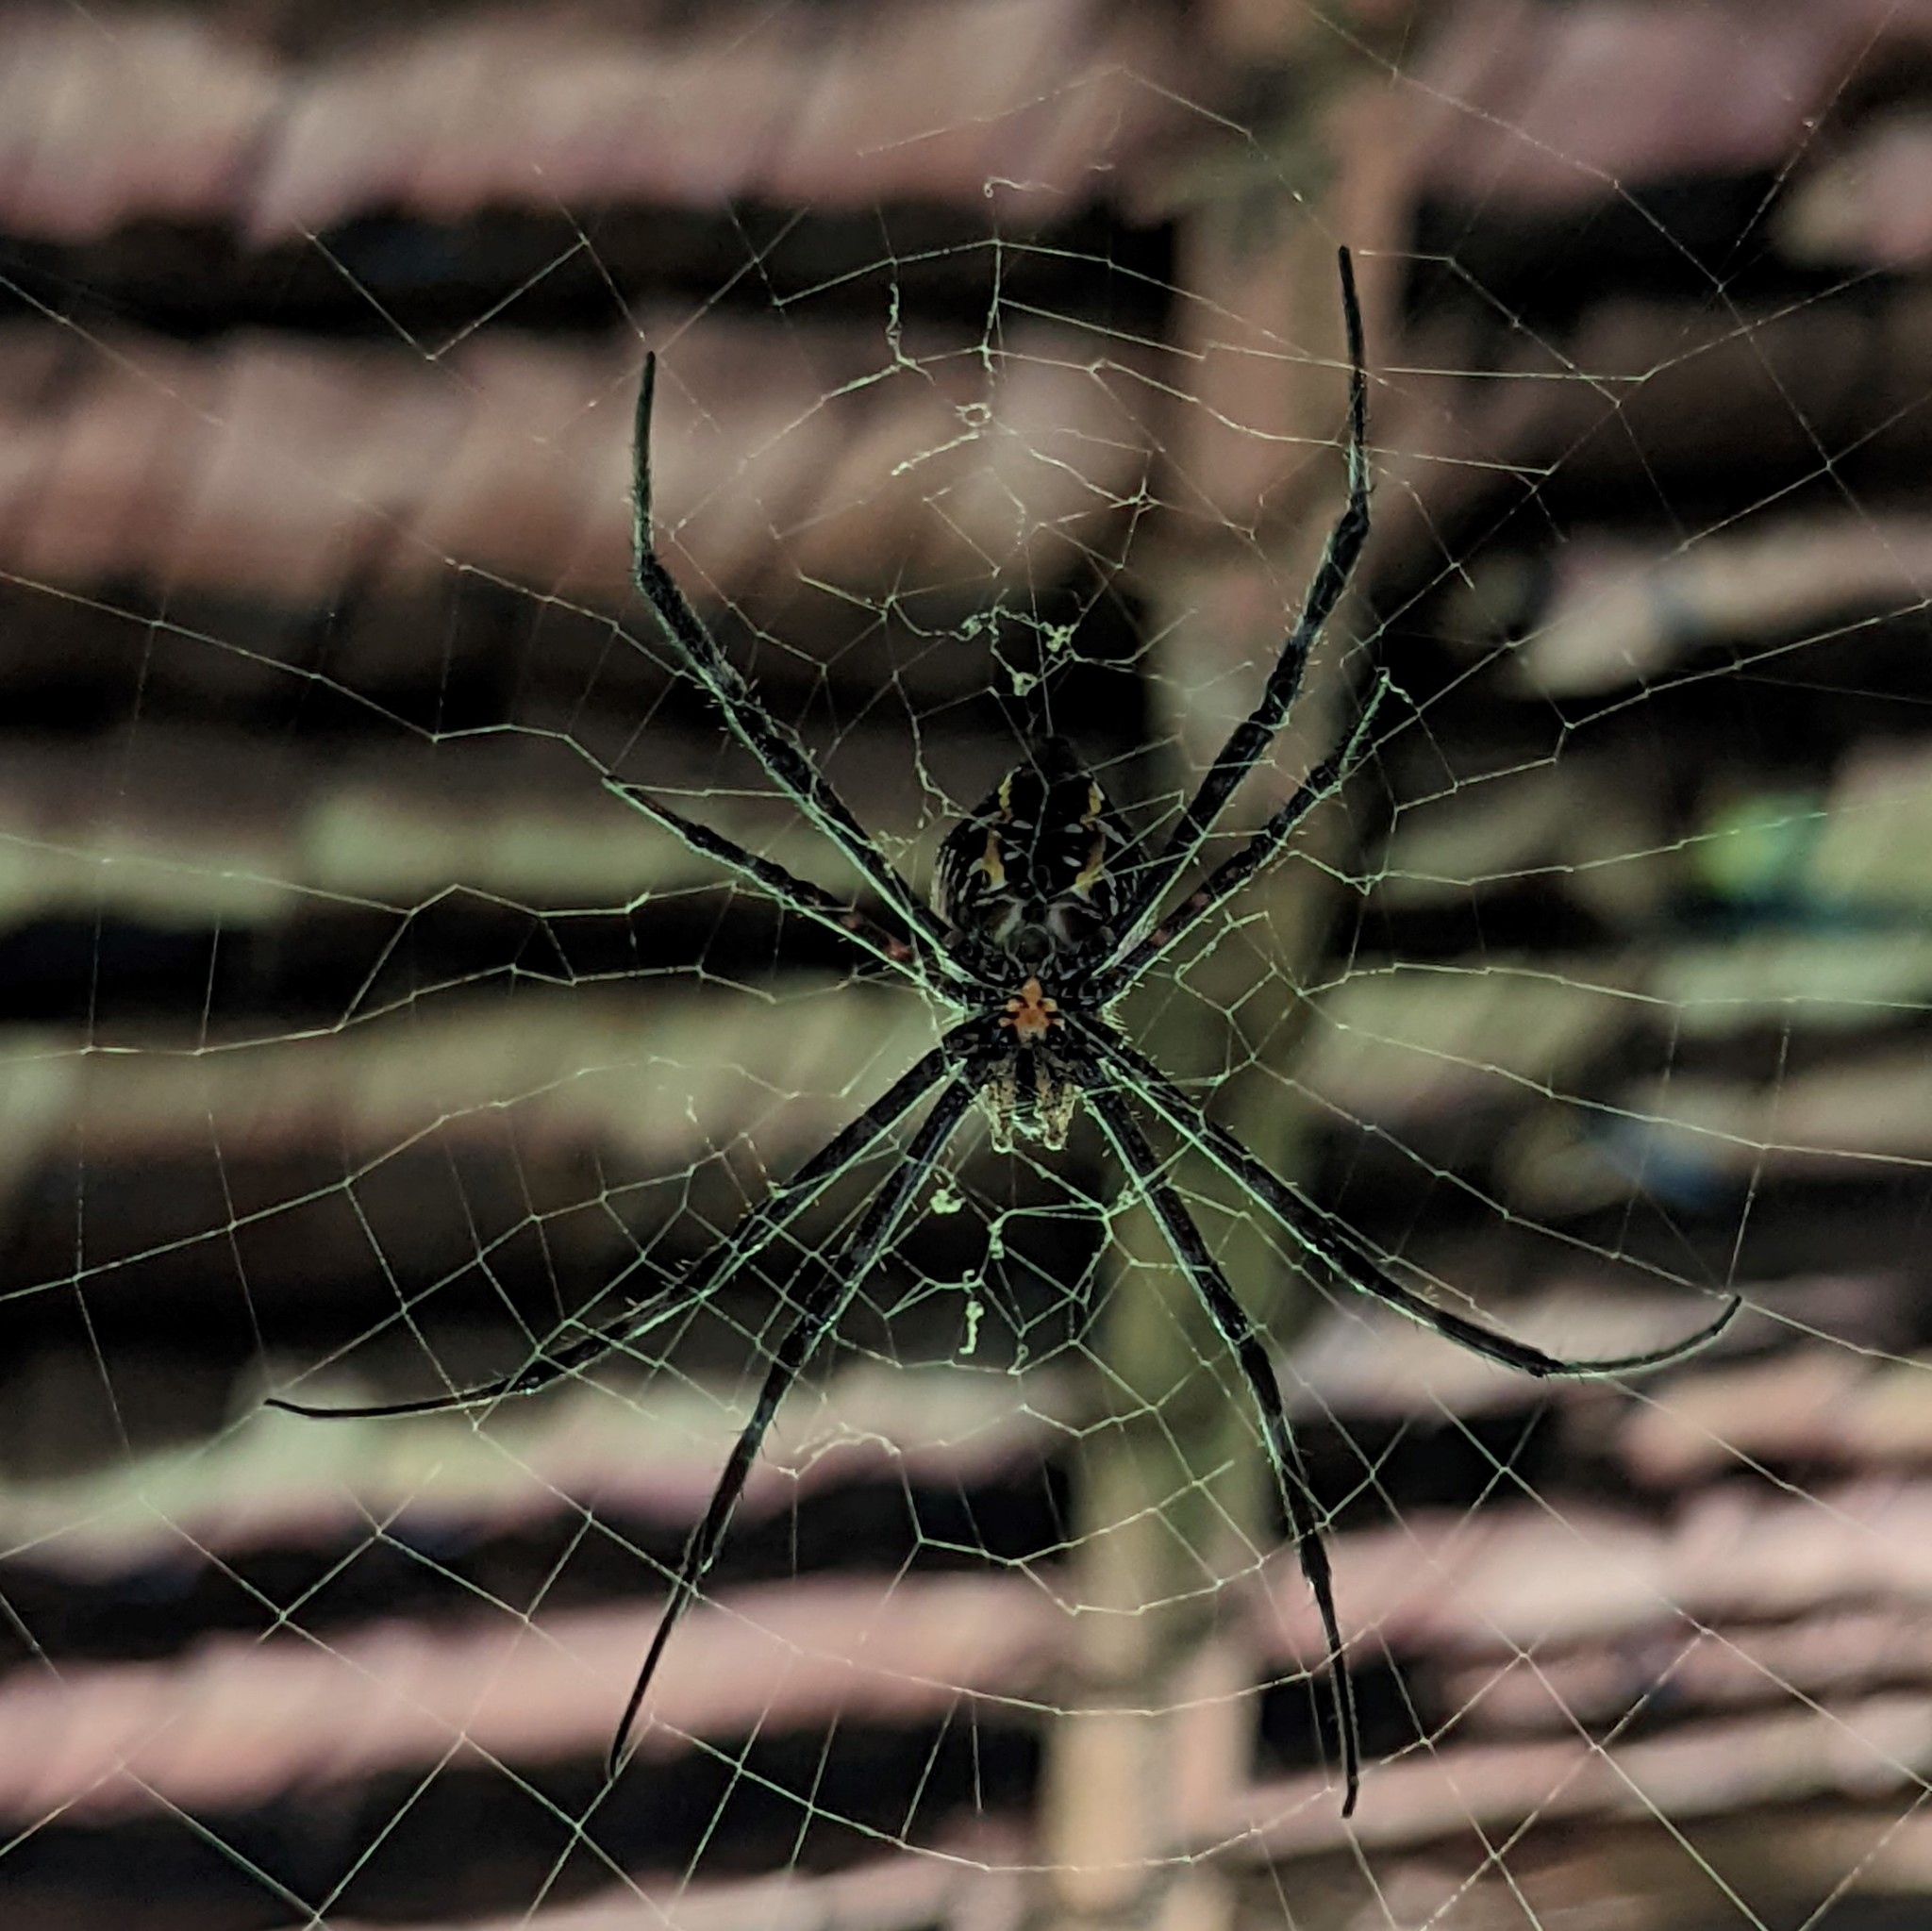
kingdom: Animalia
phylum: Arthropoda
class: Arachnida
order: Araneae
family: Araneidae
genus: Argiope
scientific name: Argiope appensa
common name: Garden spider
